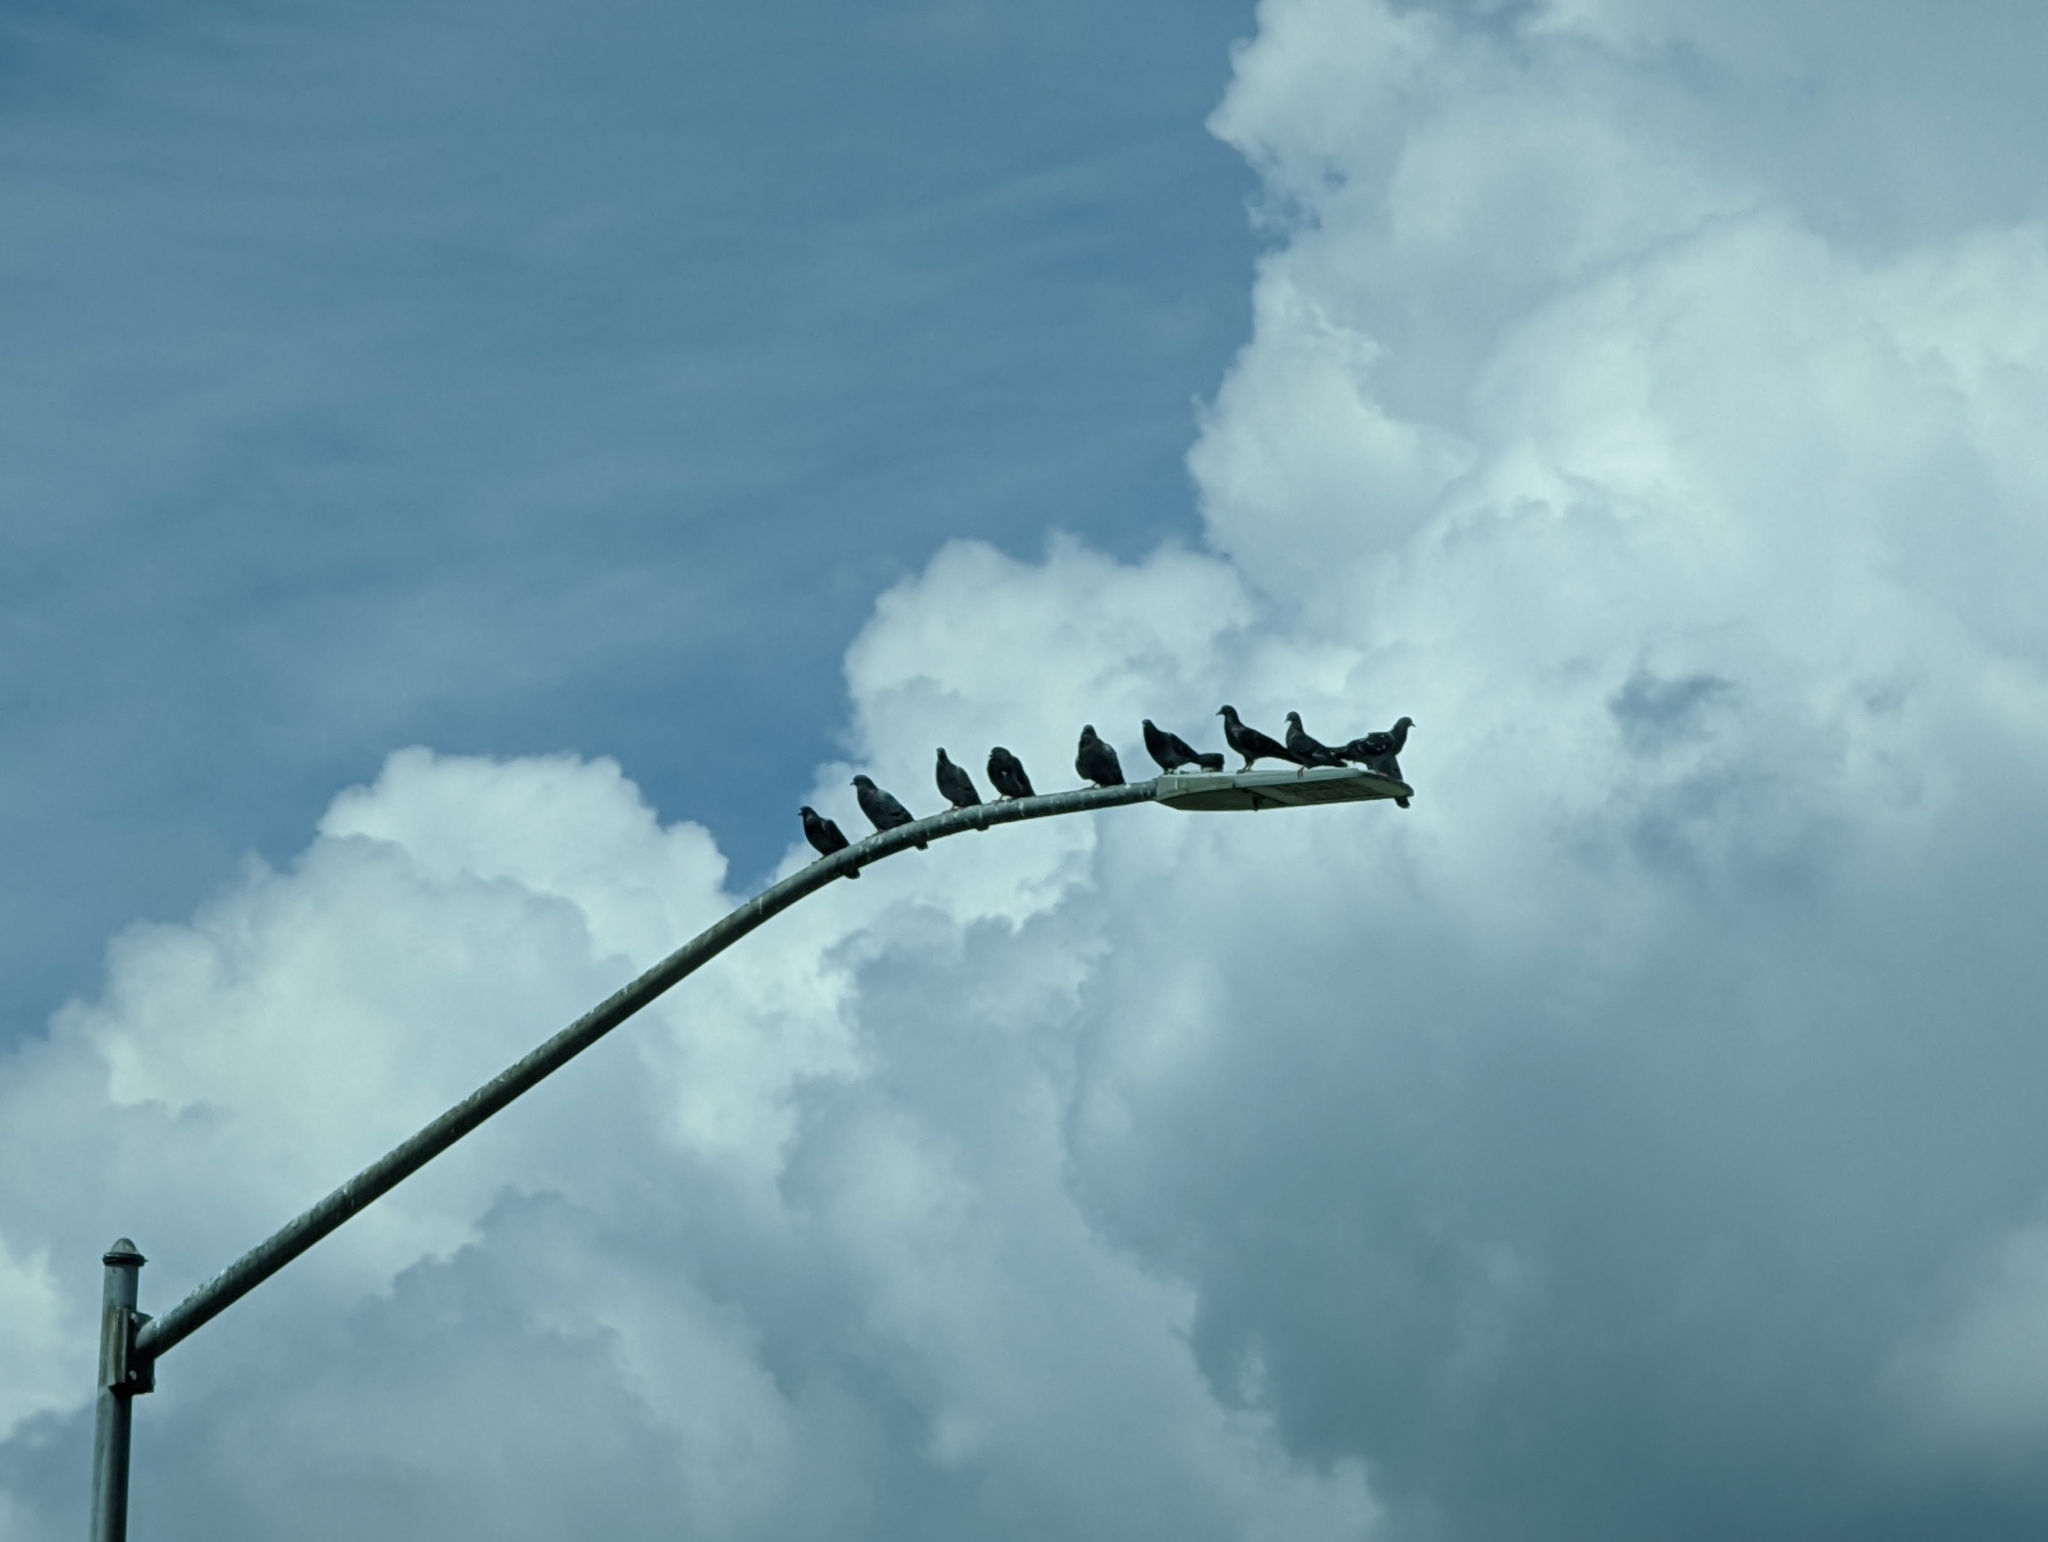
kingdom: Animalia
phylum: Chordata
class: Aves
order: Columbiformes
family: Columbidae
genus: Columba
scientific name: Columba livia
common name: Rock pigeon
